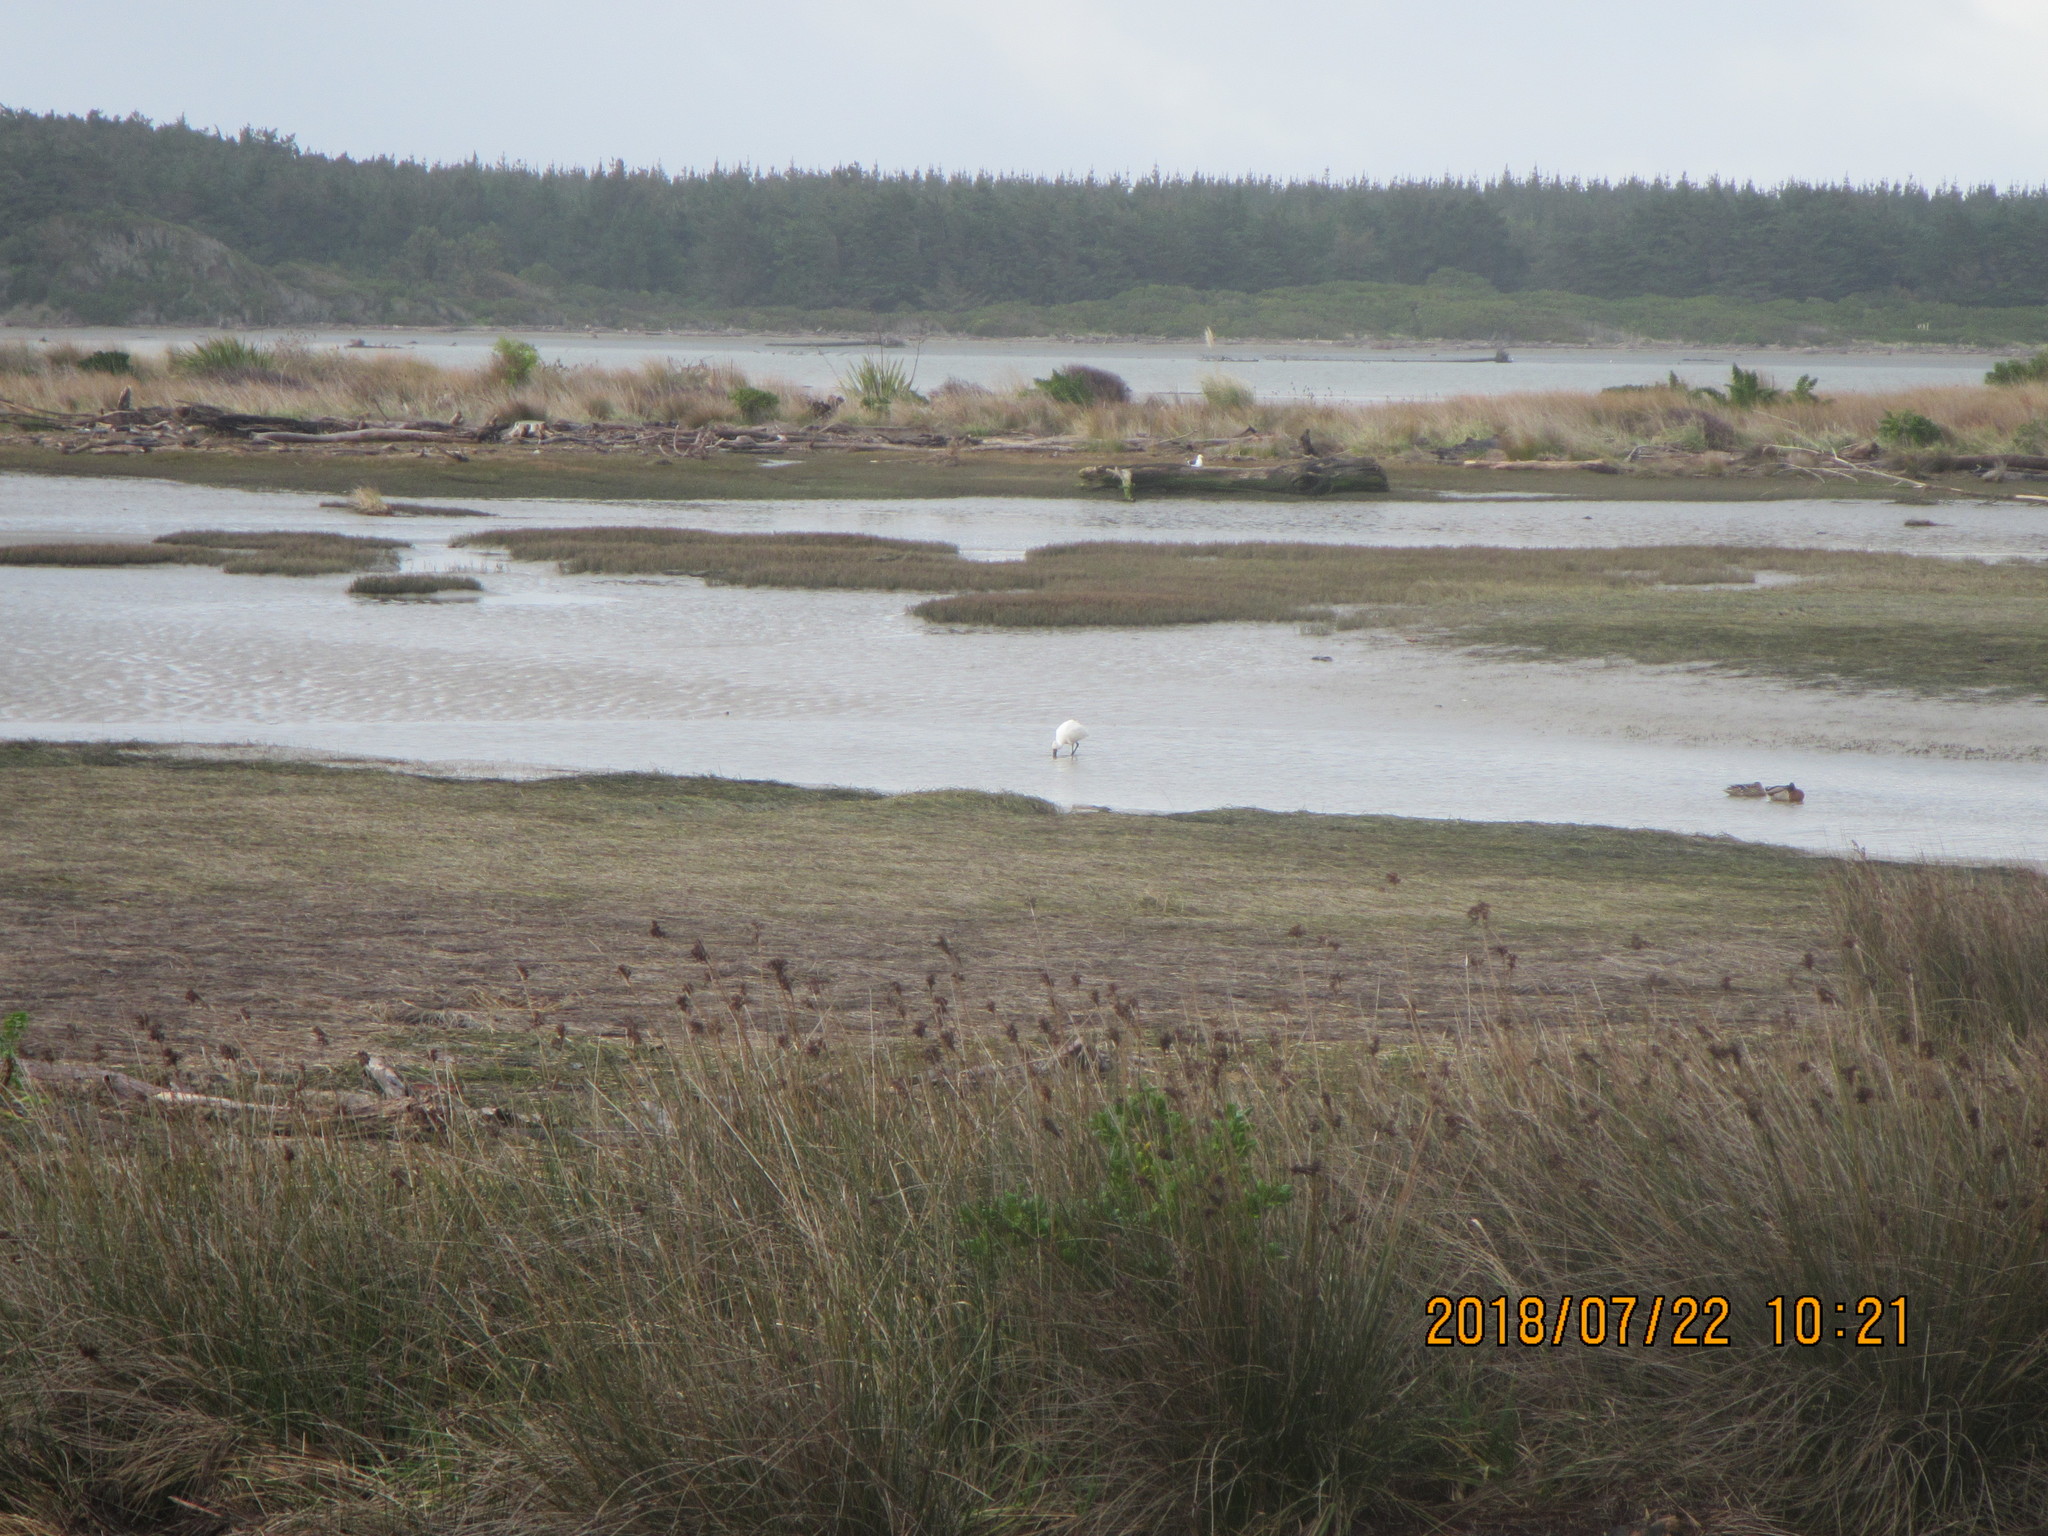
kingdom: Animalia
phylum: Chordata
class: Aves
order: Pelecaniformes
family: Threskiornithidae
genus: Platalea
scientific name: Platalea regia
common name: Royal spoonbill
